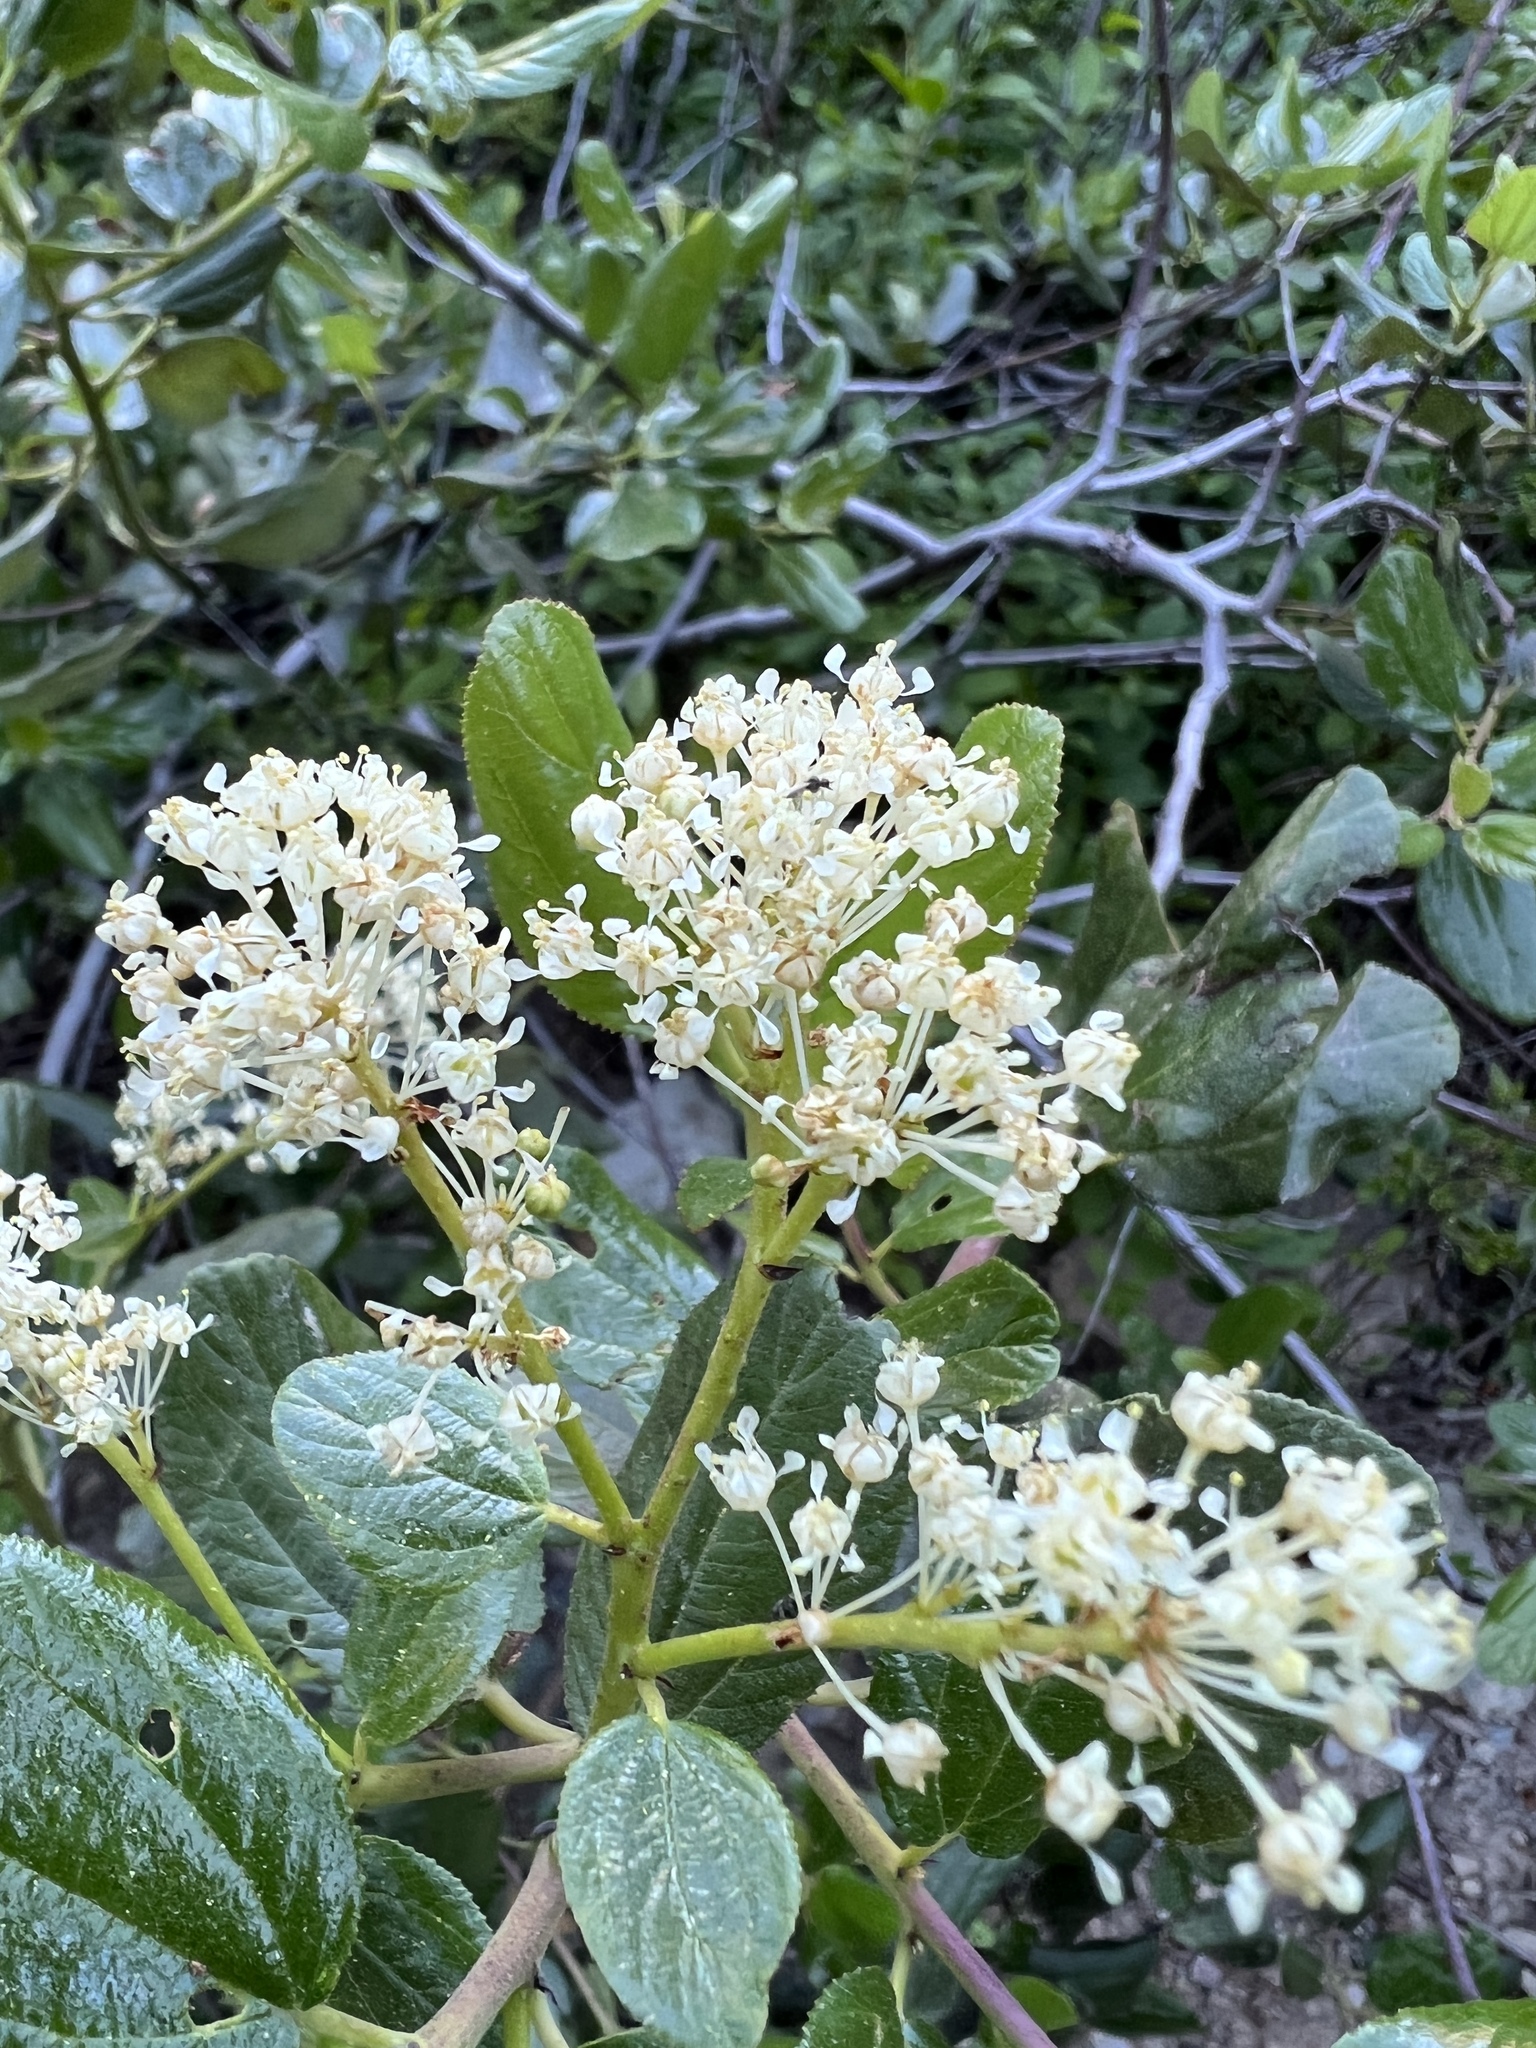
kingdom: Plantae
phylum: Tracheophyta
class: Magnoliopsida
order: Rosales
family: Rhamnaceae
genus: Ceanothus
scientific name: Ceanothus velutinus
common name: Snowbrush
